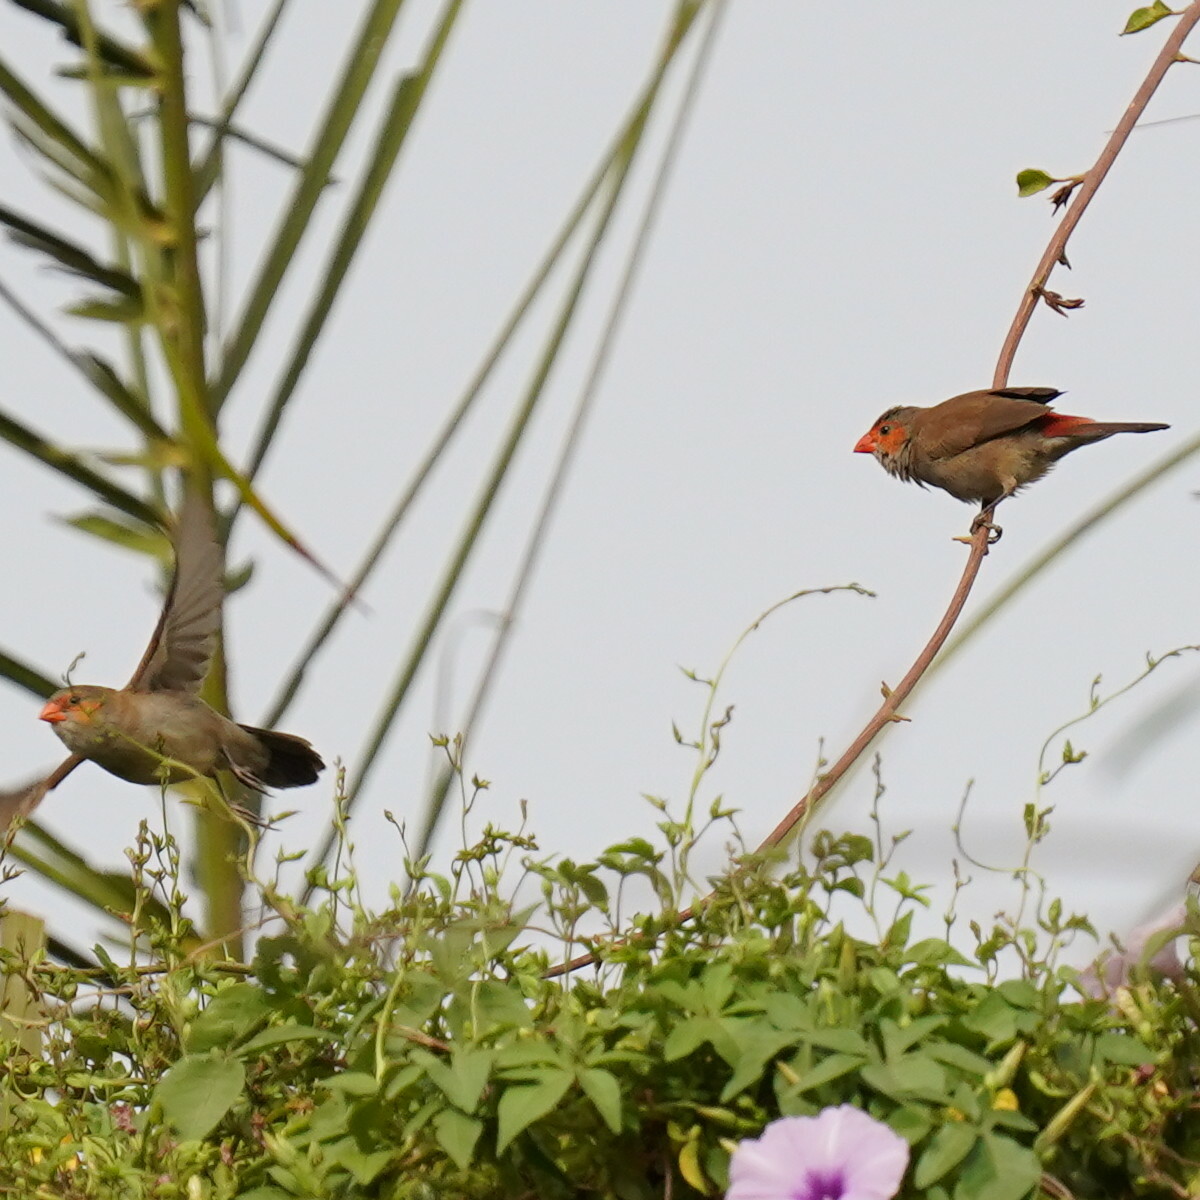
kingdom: Animalia
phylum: Chordata
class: Aves
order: Passeriformes
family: Estrildidae
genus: Estrilda
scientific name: Estrilda melpoda
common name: Orange-cheeked waxbill
